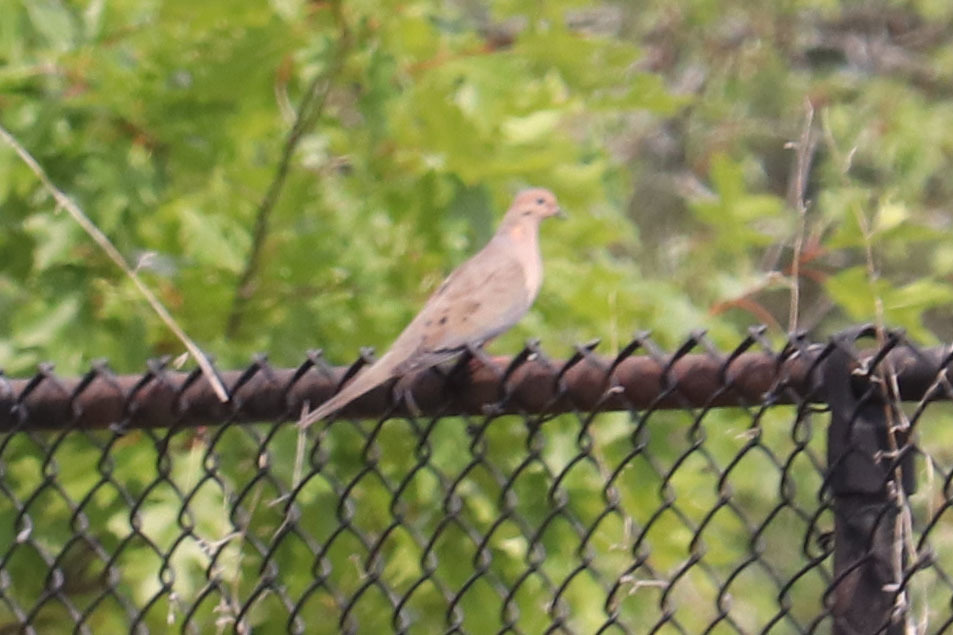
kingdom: Animalia
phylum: Chordata
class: Aves
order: Columbiformes
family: Columbidae
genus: Zenaida
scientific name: Zenaida macroura
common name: Mourning dove
